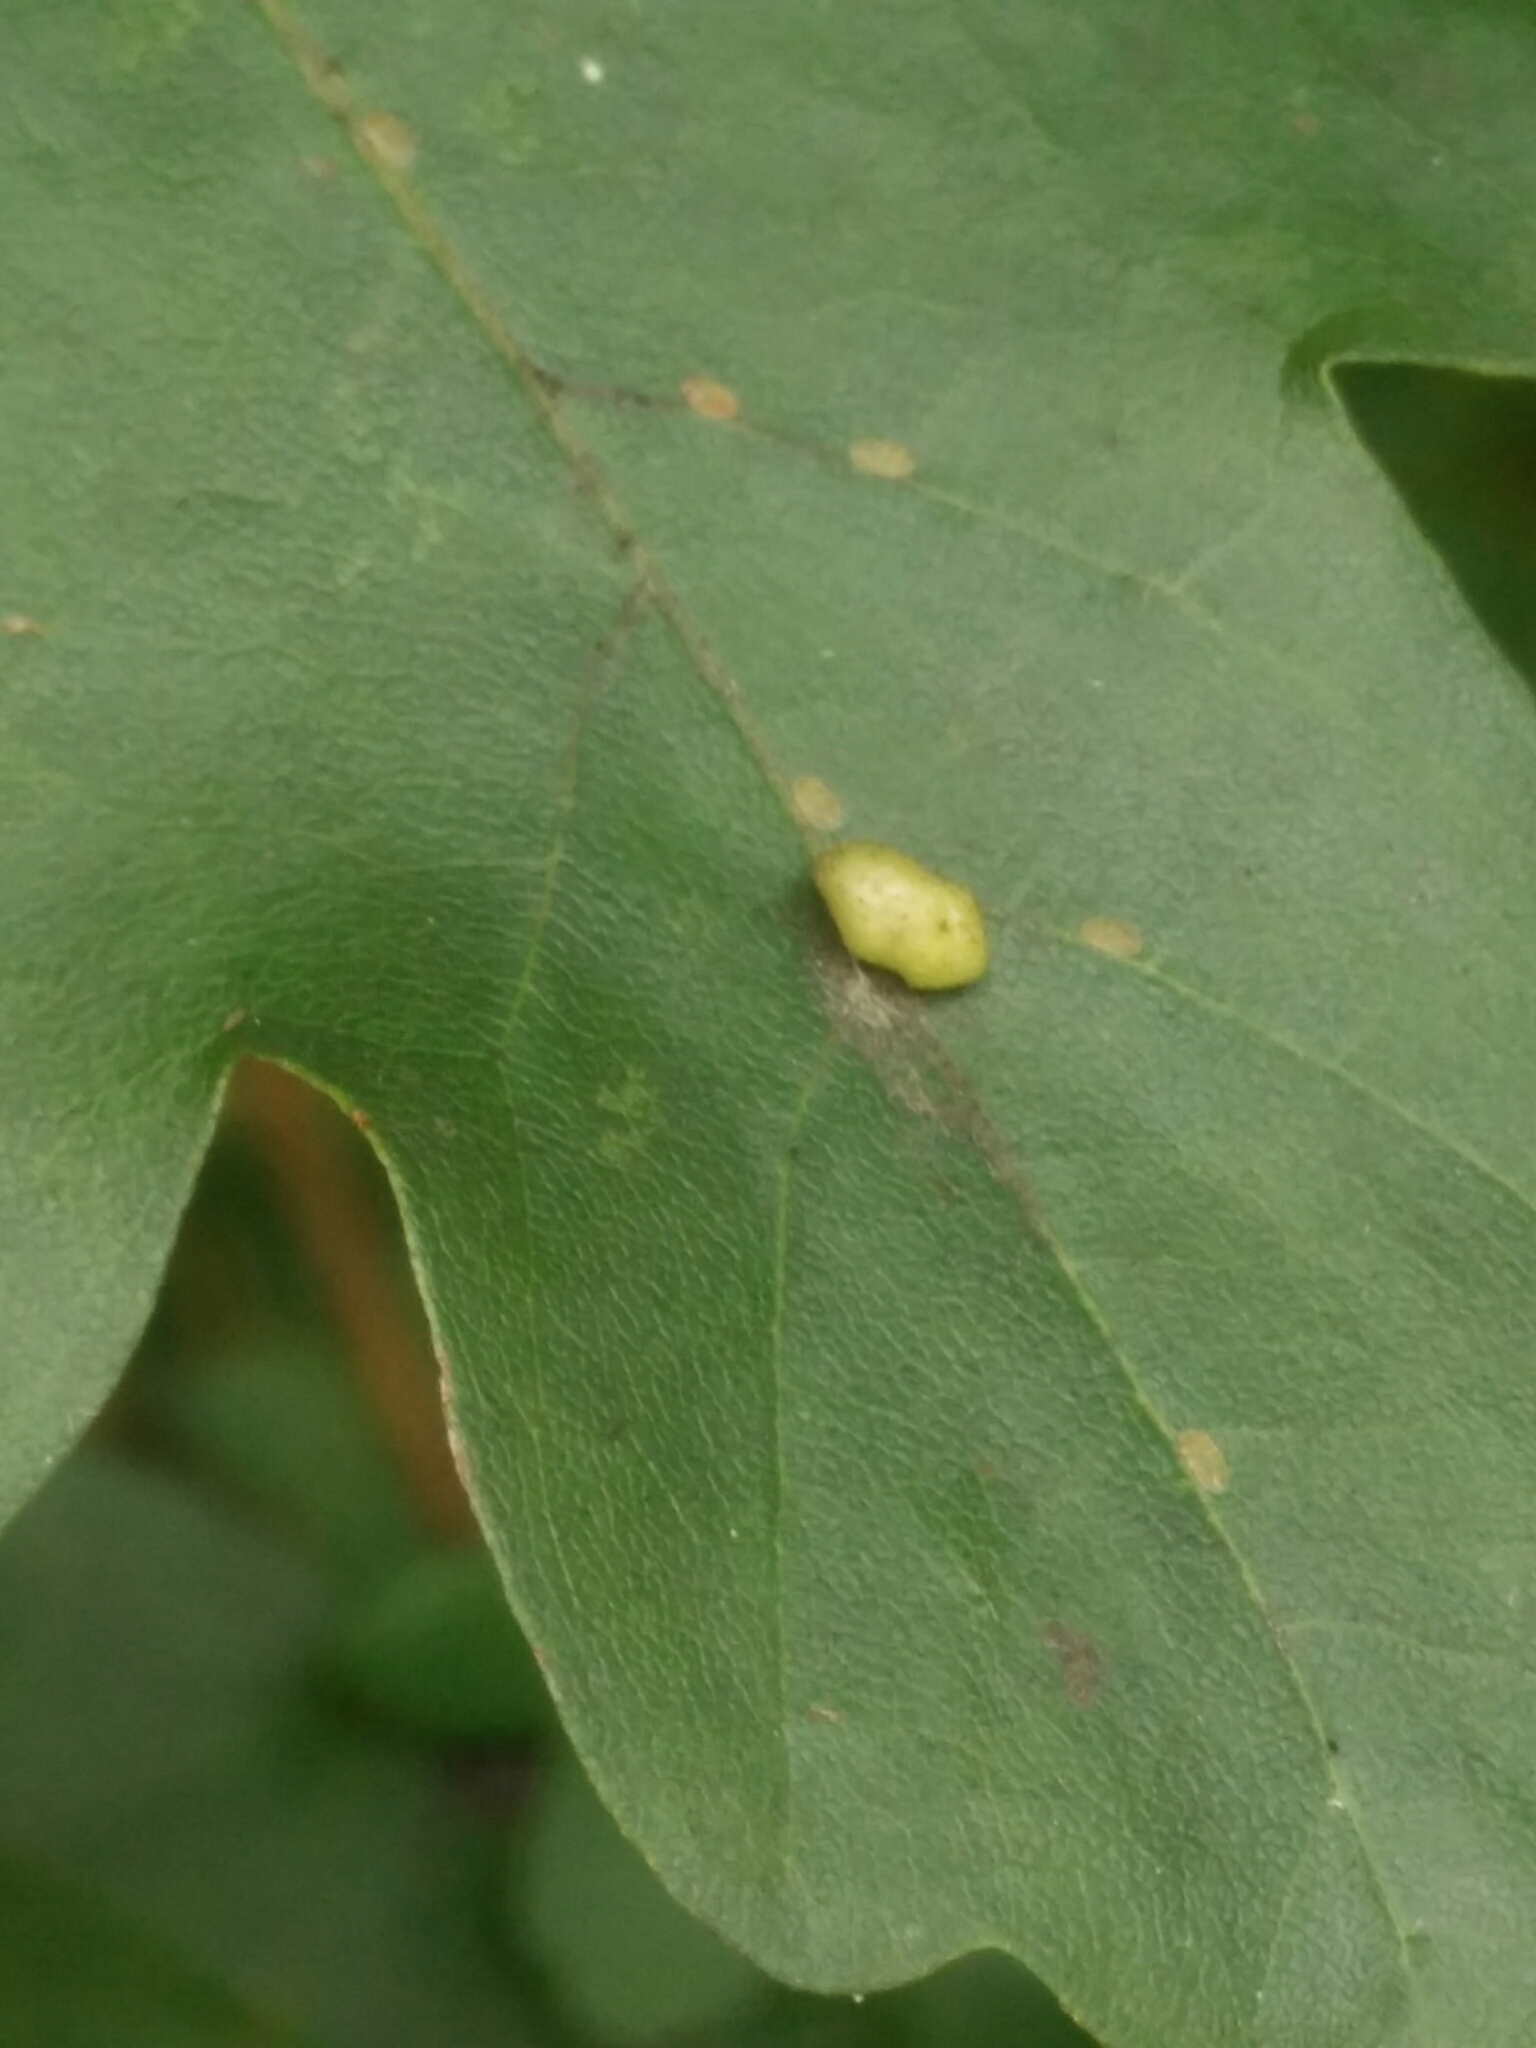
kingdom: Animalia
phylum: Arthropoda
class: Arachnida
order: Trombidiformes
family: Eriophyidae
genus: Aceria
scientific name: Aceria macrochelus
